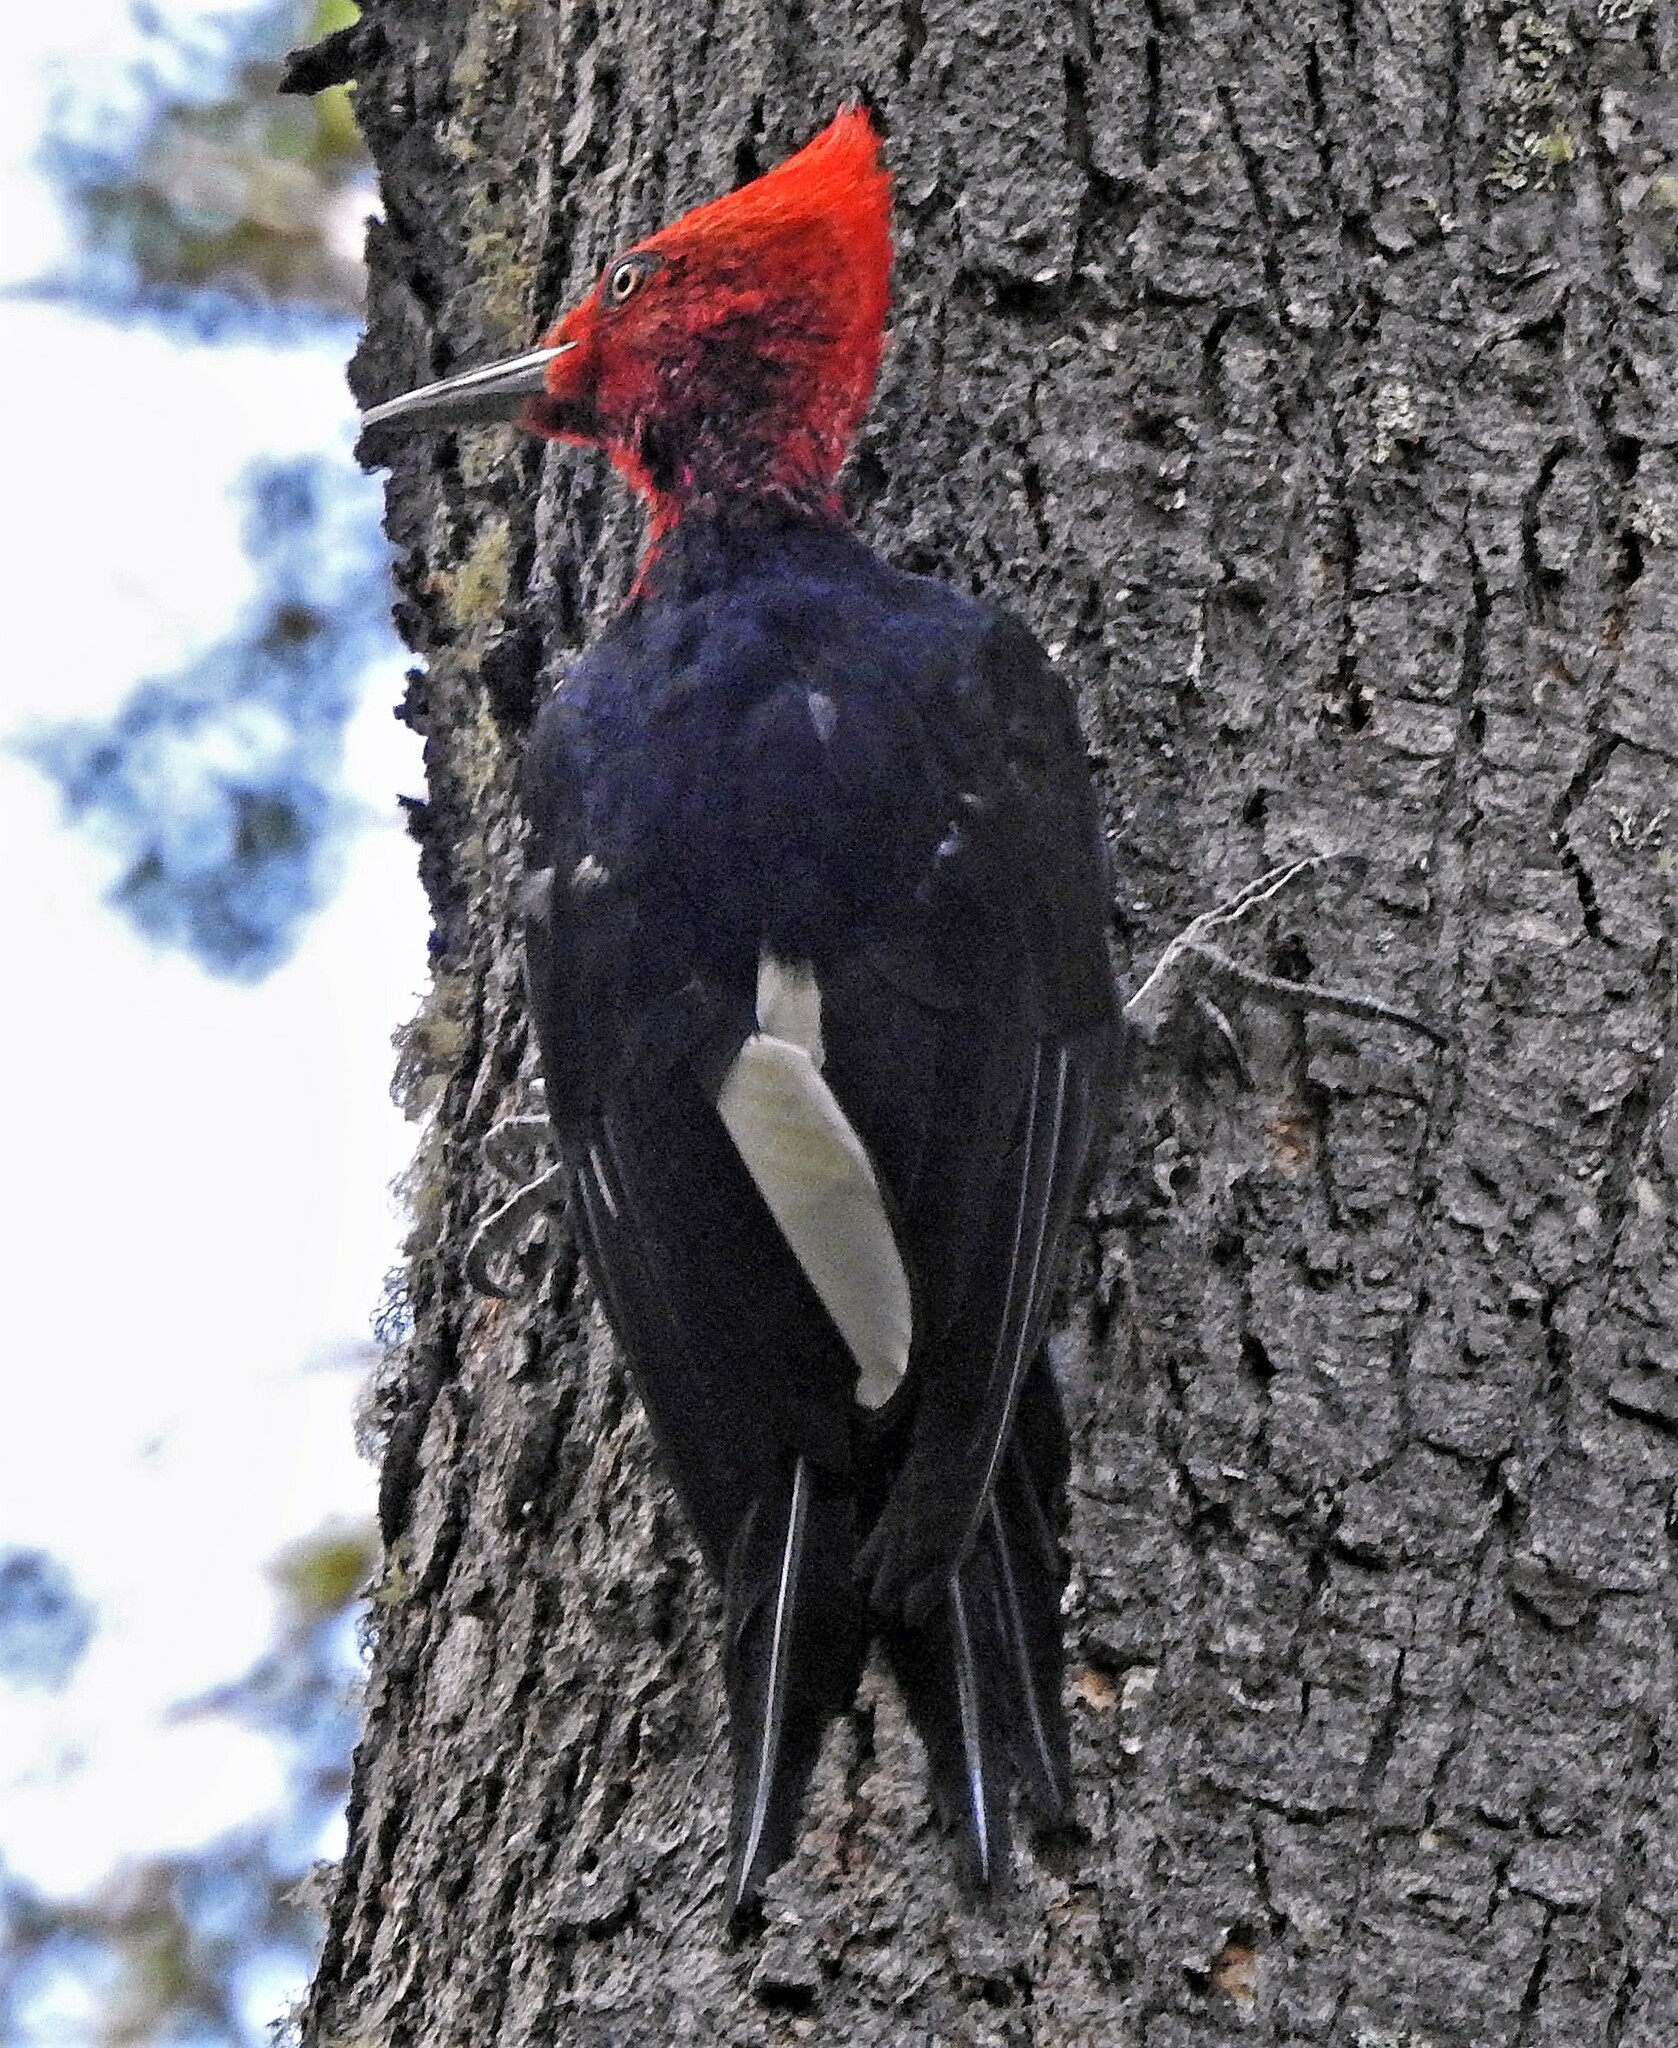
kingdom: Animalia
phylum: Chordata
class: Aves
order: Piciformes
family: Picidae
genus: Campephilus
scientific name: Campephilus magellanicus
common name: Magellanic woodpecker
